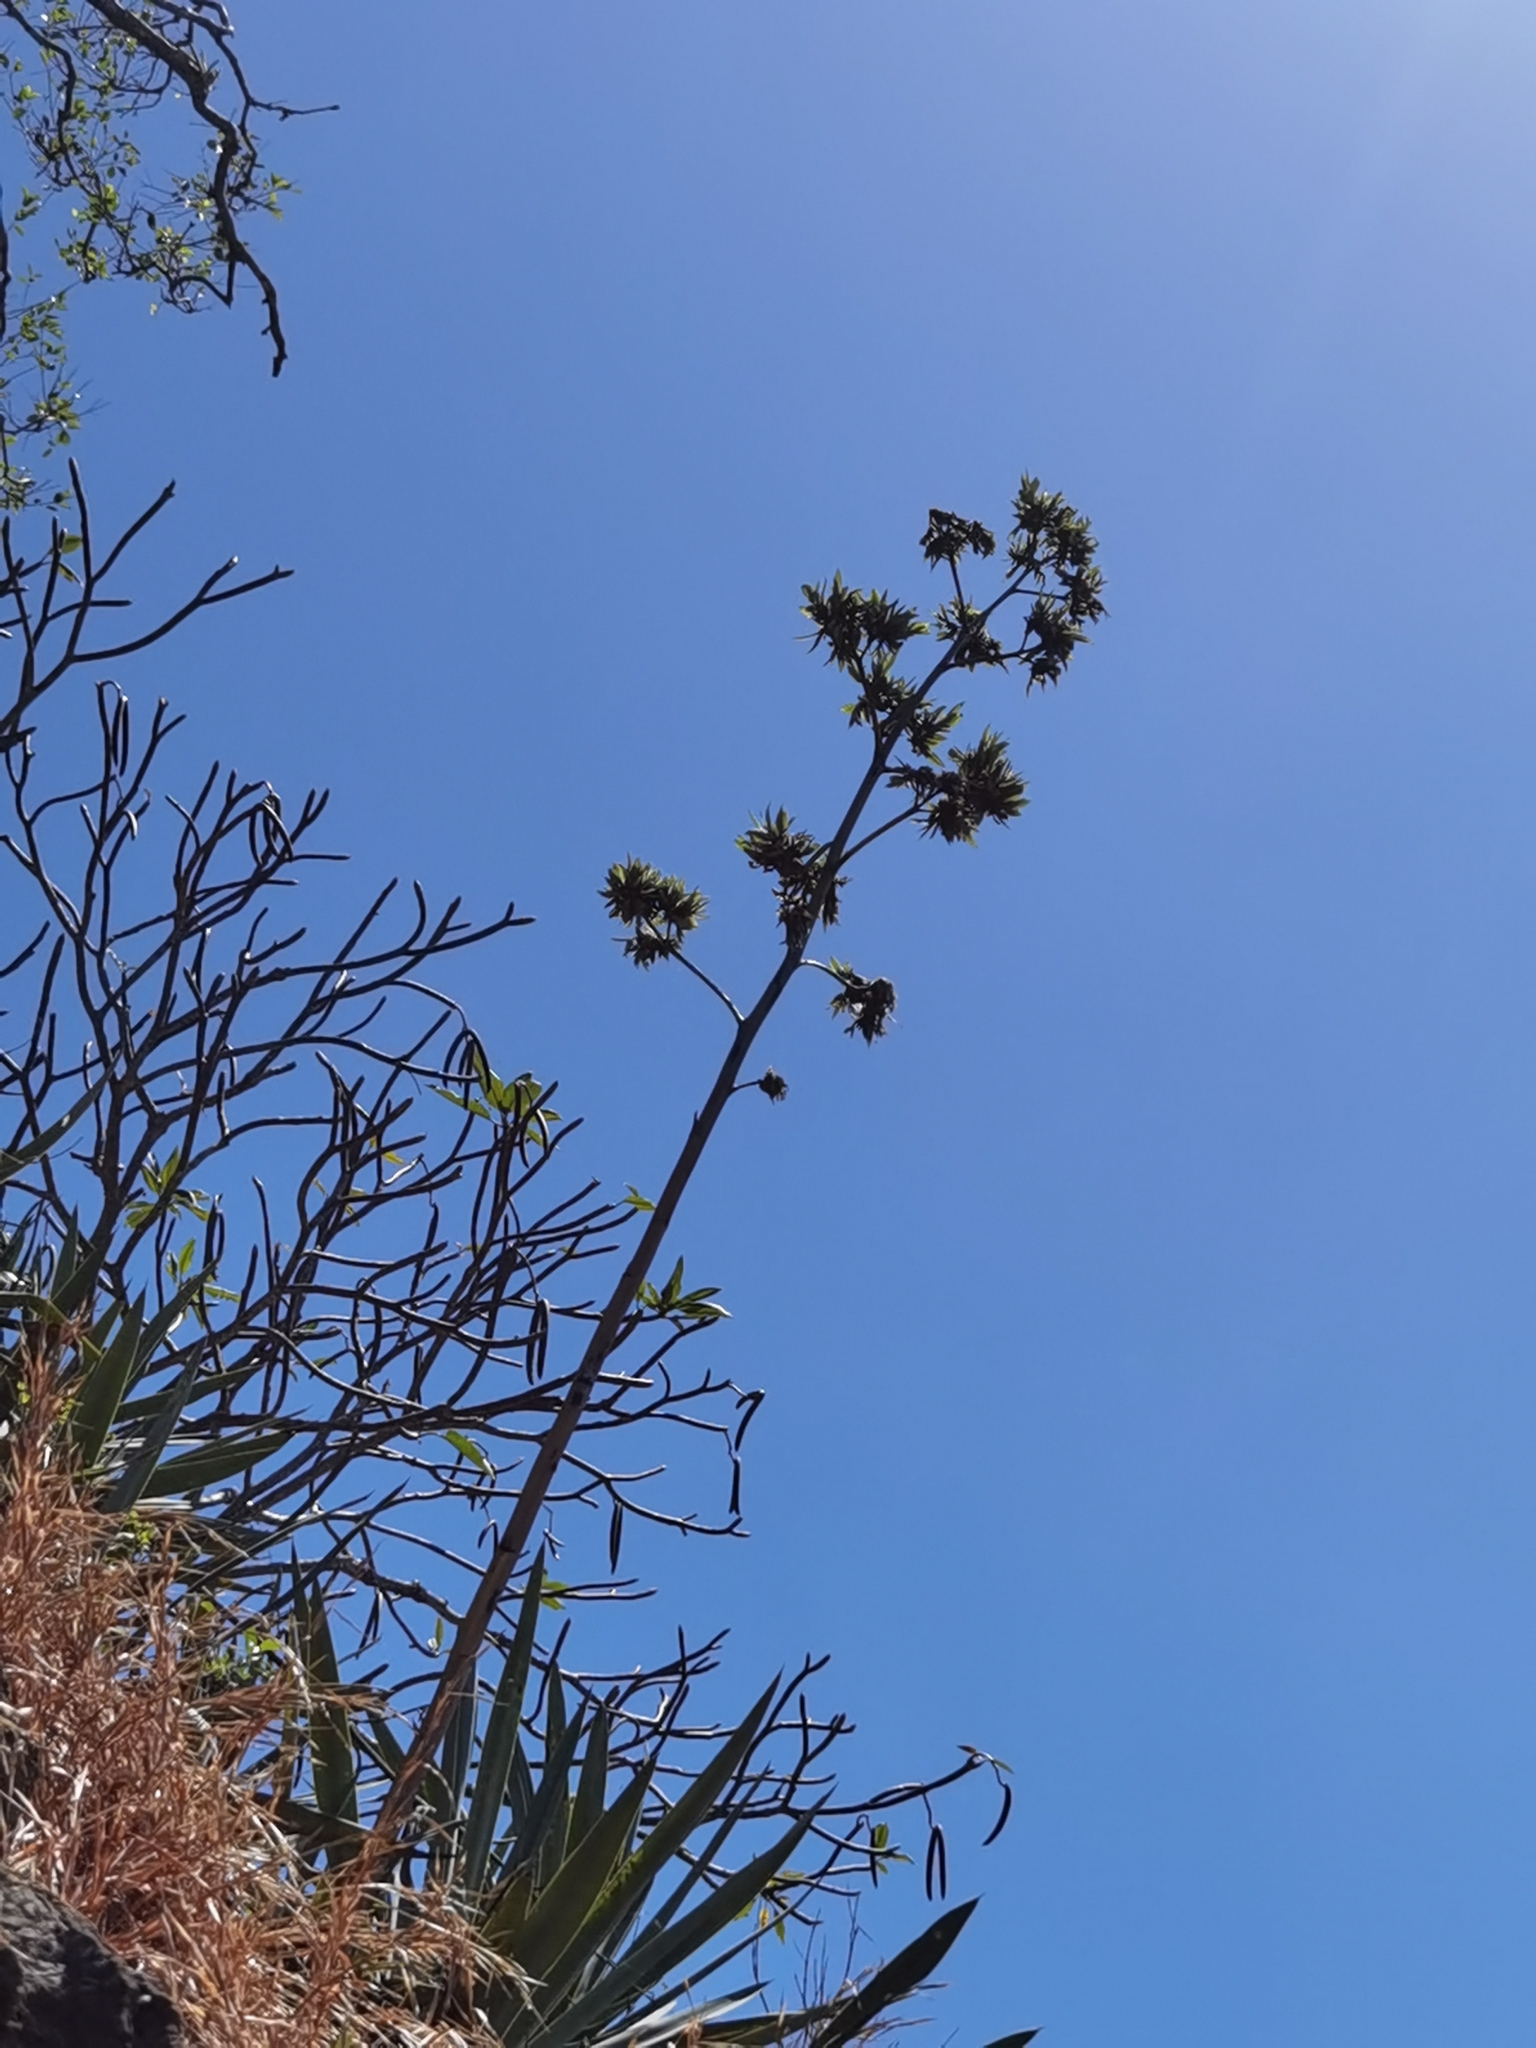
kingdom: Plantae
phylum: Tracheophyta
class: Liliopsida
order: Asparagales
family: Asparagaceae
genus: Agave
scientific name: Agave angustifolia
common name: Mescal agave
